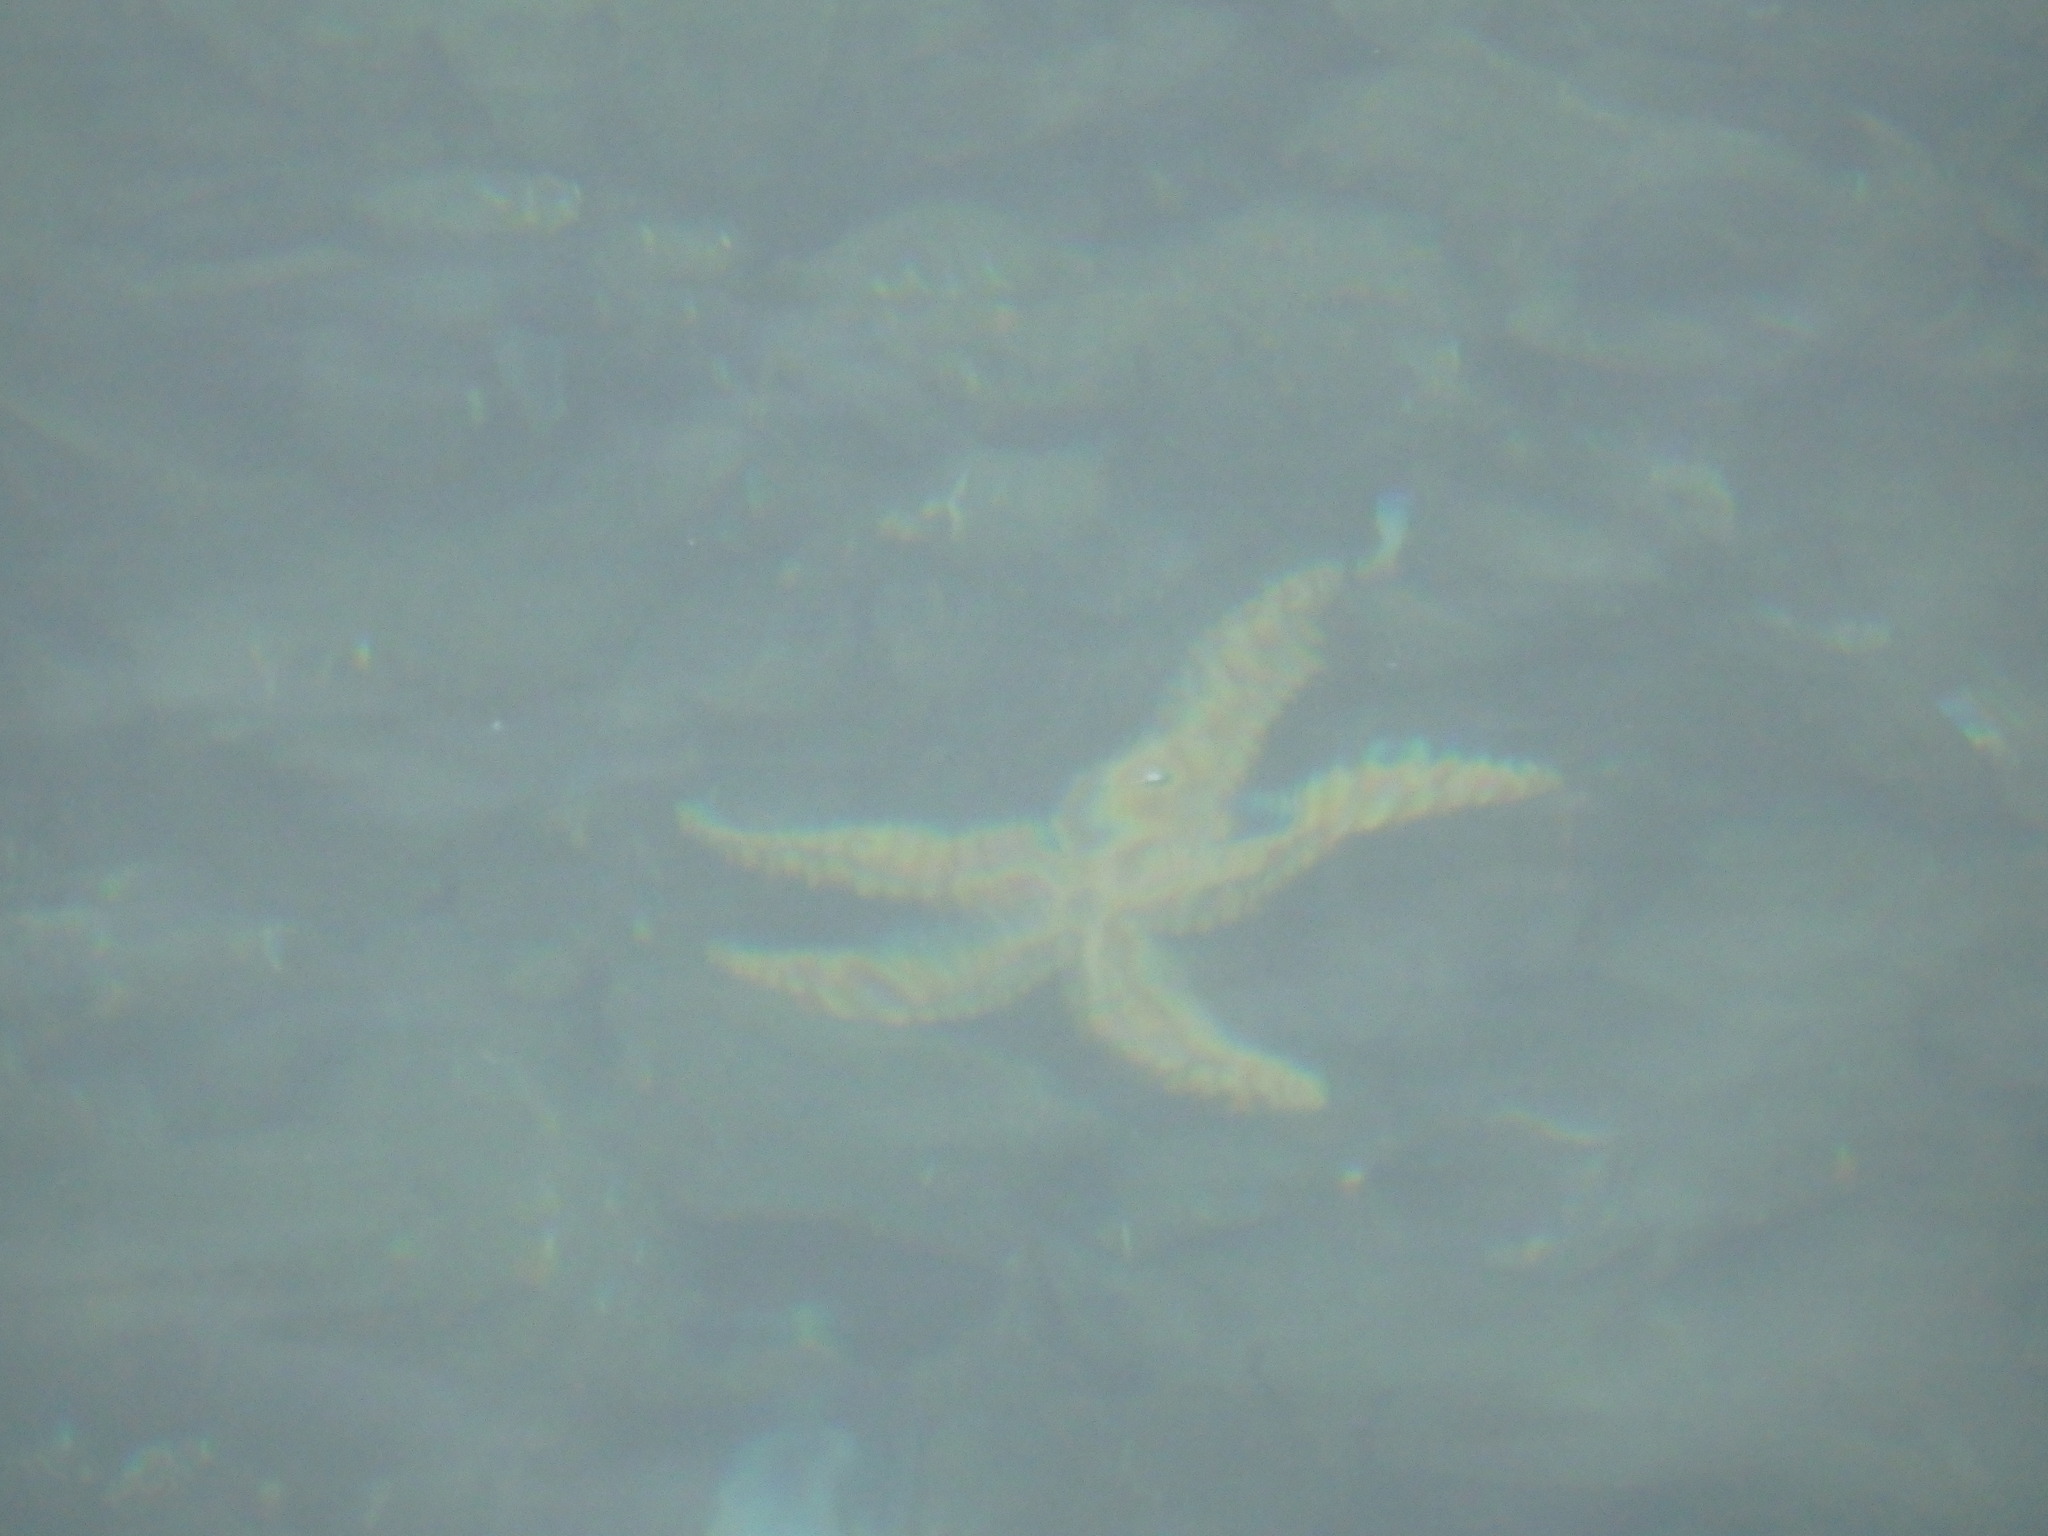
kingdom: Animalia
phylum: Echinodermata
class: Asteroidea
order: Forcipulatida
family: Asteriidae
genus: Marthasterias
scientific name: Marthasterias glacialis
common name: Spiny starfish
